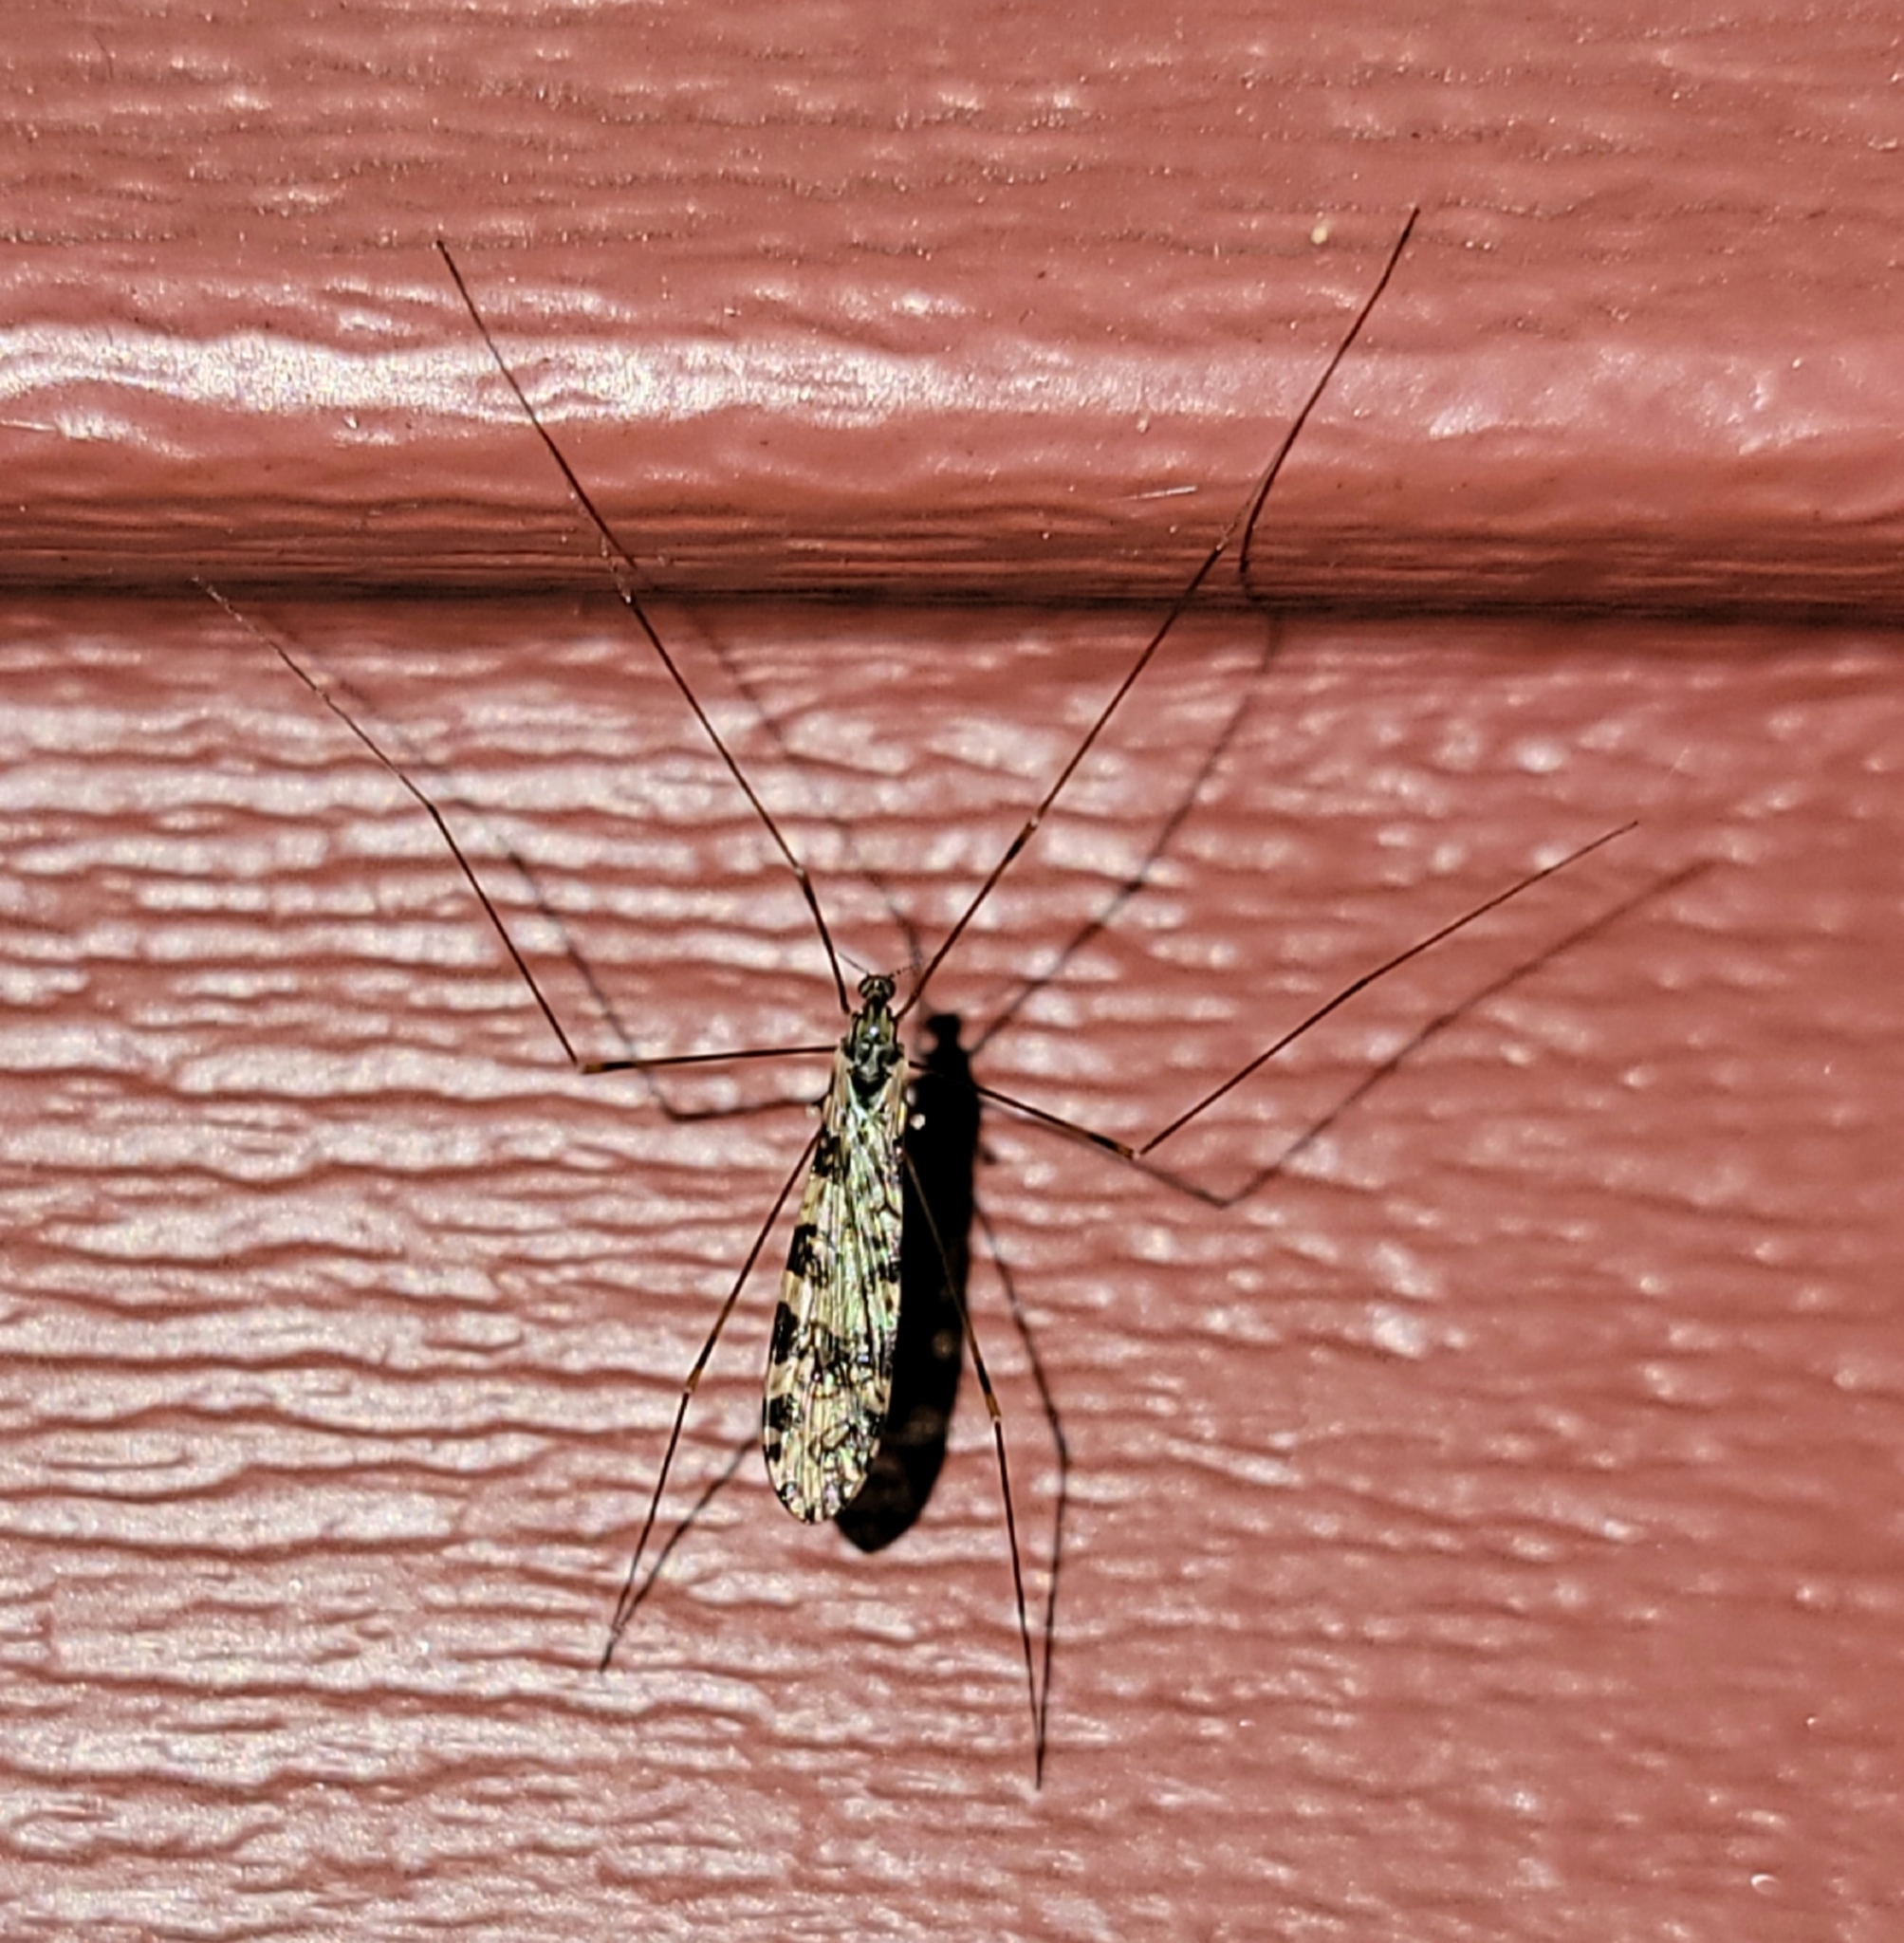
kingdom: Animalia
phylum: Arthropoda
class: Insecta
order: Diptera
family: Limoniidae
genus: Limonia
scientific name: Limonia annulata
